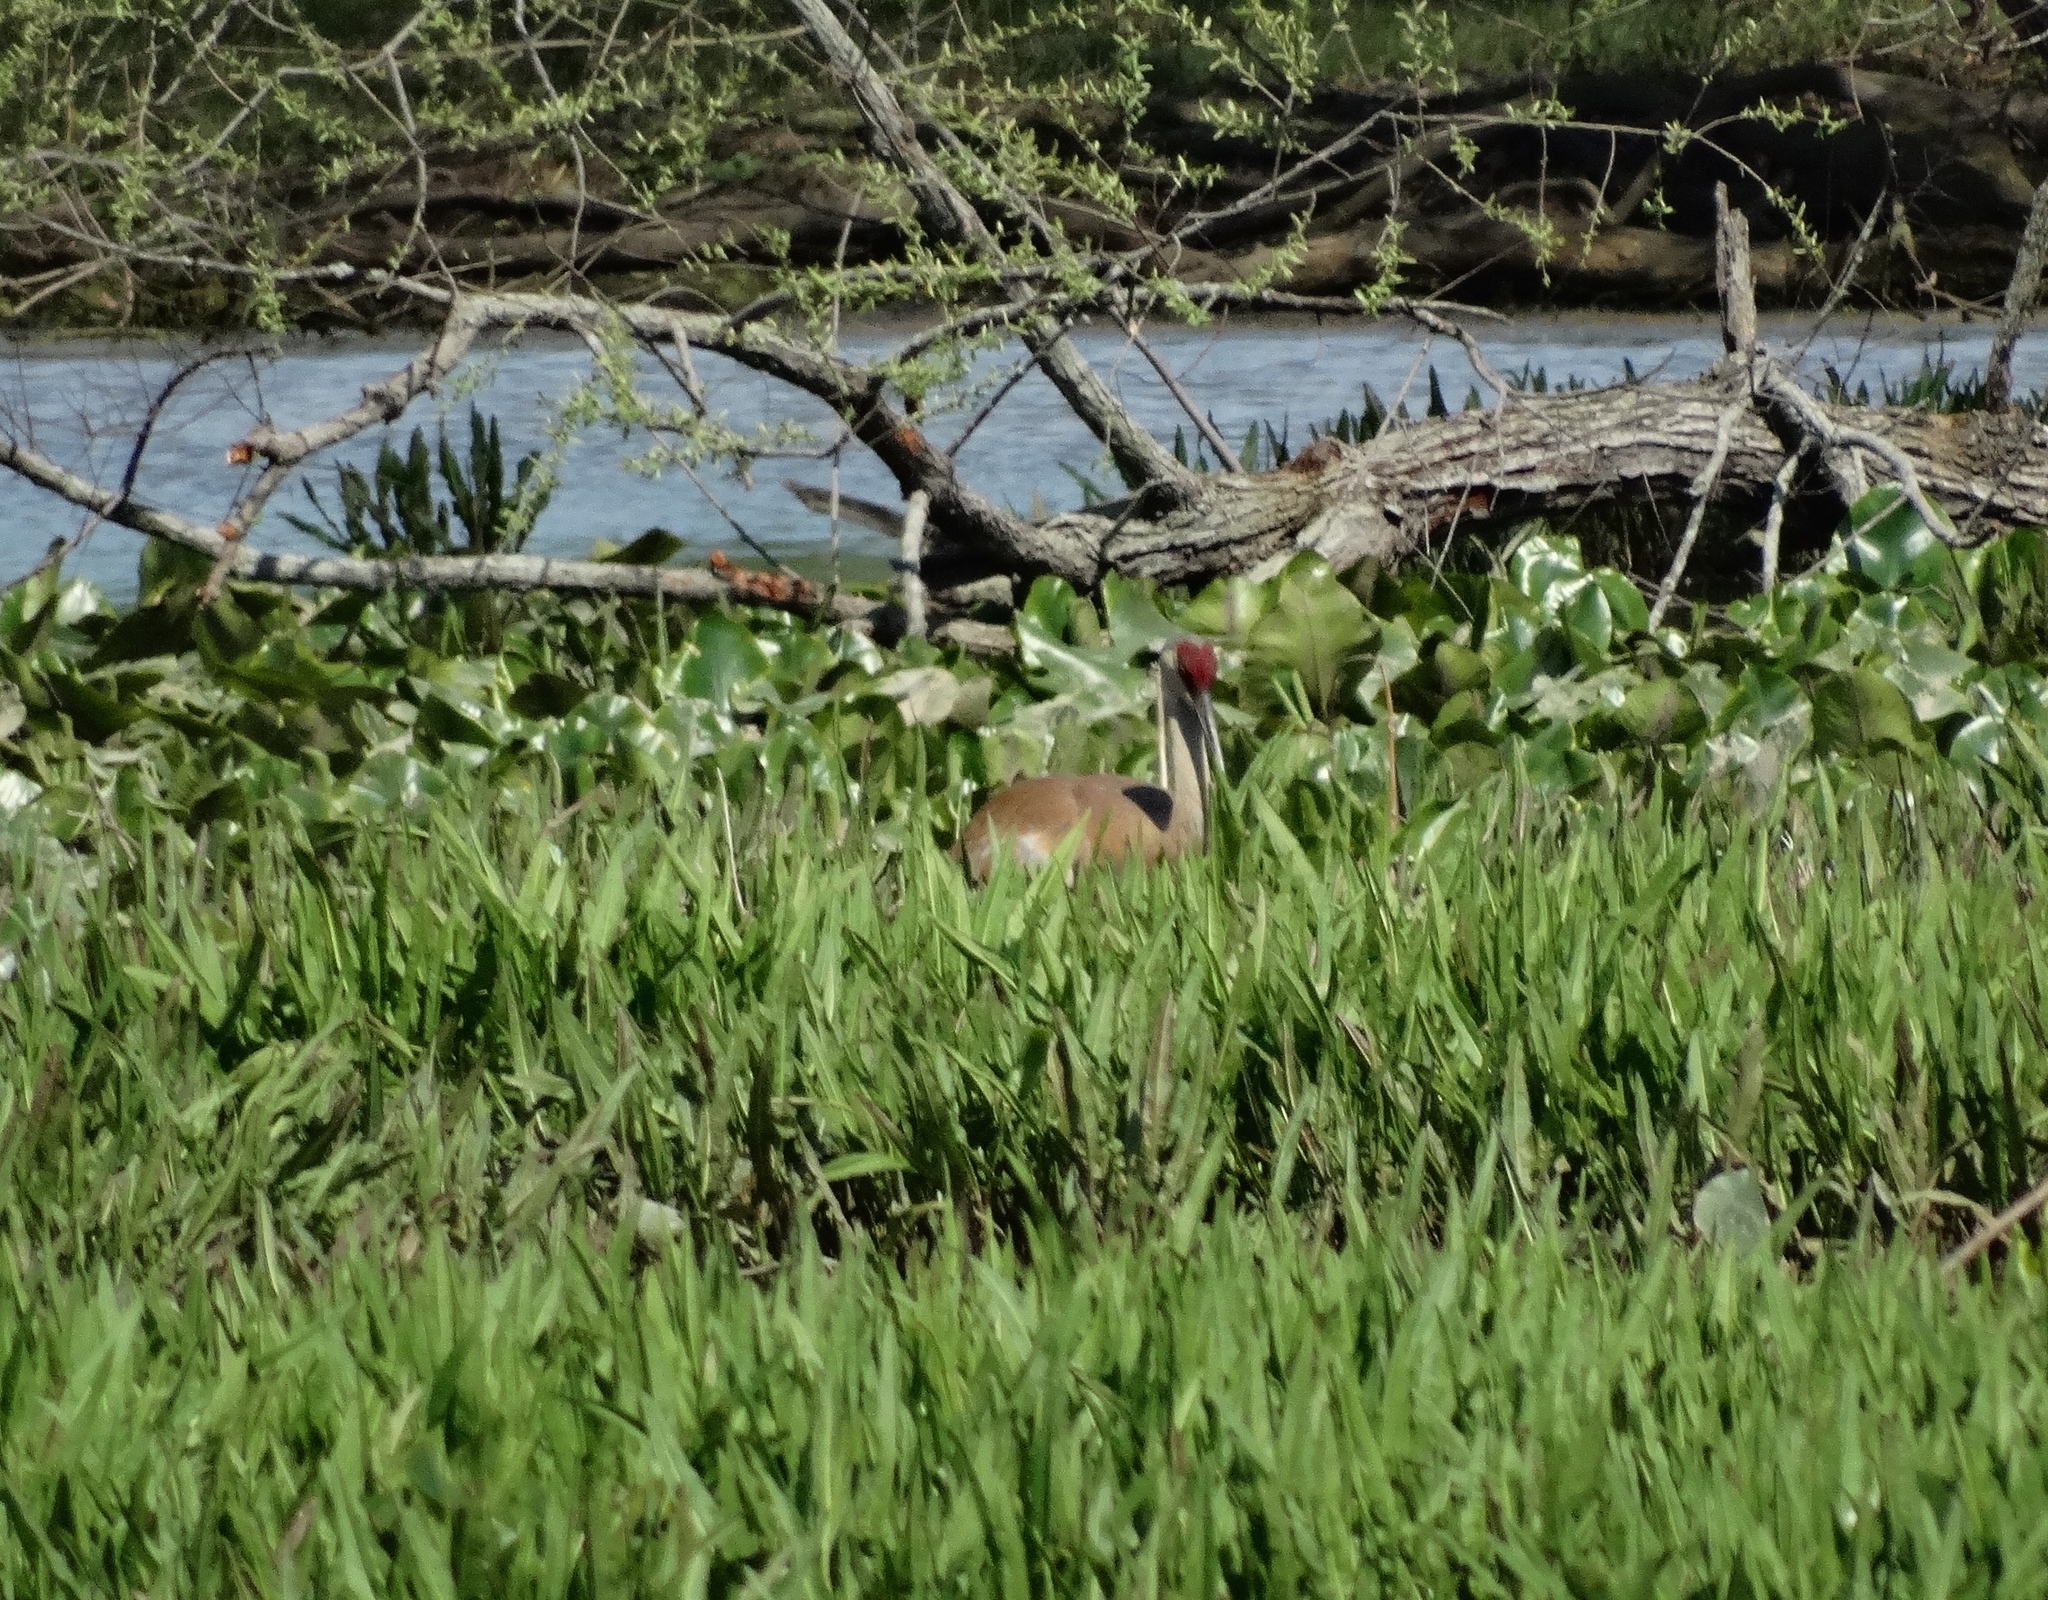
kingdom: Animalia
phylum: Chordata
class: Aves
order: Gruiformes
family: Gruidae
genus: Grus
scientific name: Grus canadensis
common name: Sandhill crane
